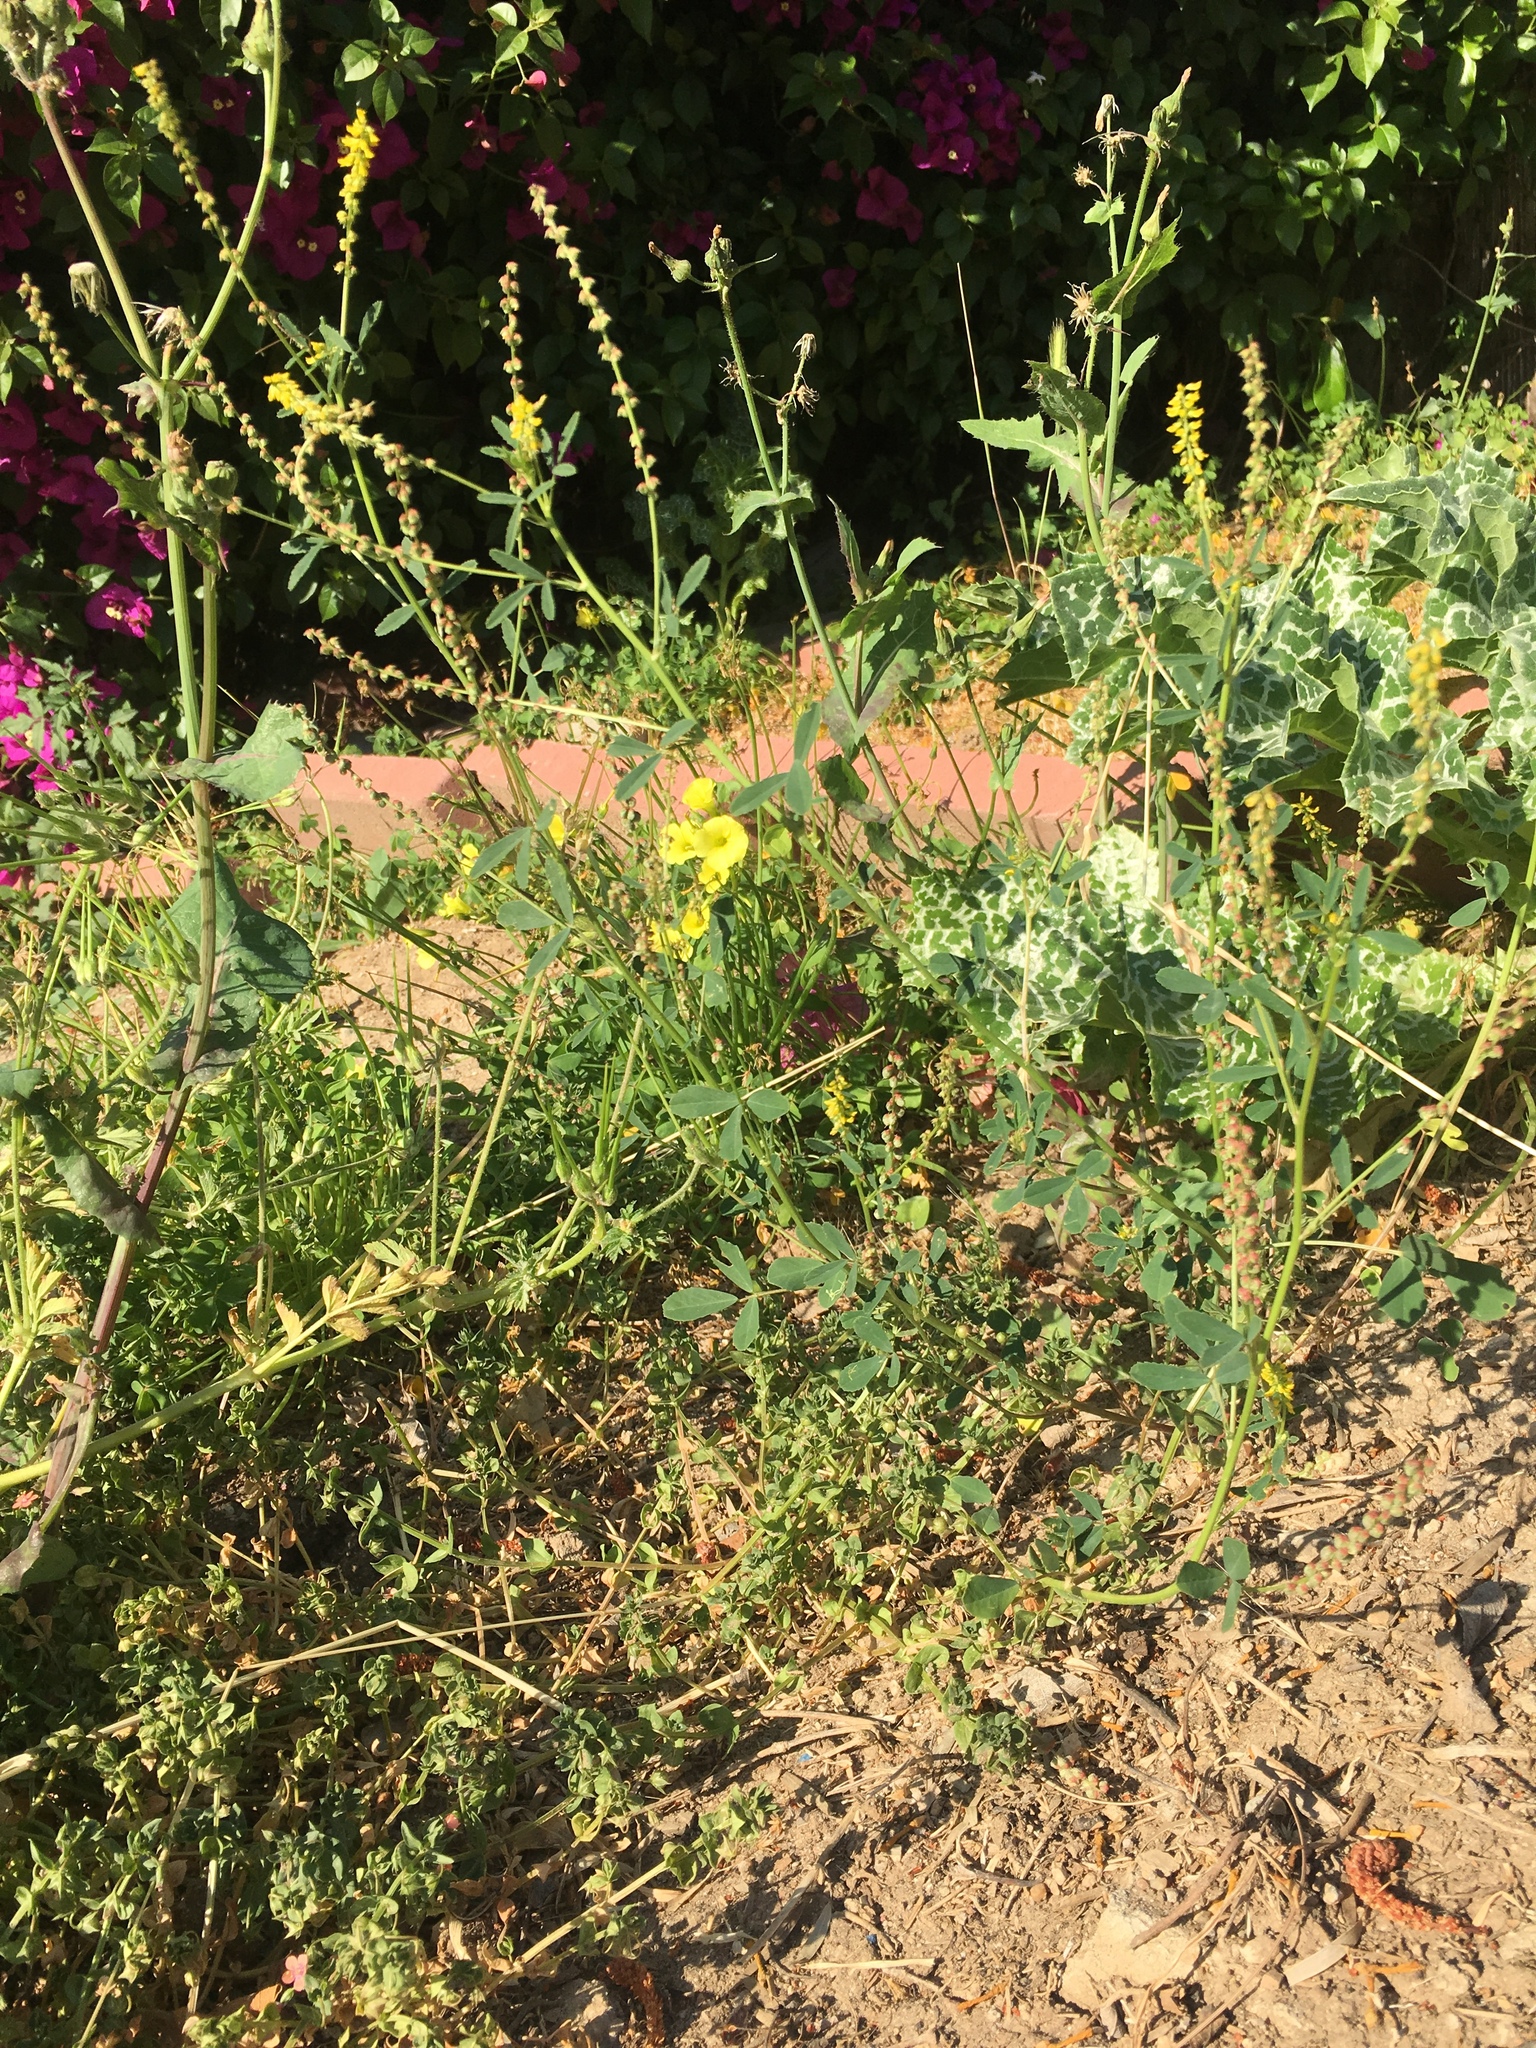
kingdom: Plantae
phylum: Tracheophyta
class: Magnoliopsida
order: Fabales
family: Fabaceae
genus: Melilotus
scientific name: Melilotus indicus
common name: Small melilot
